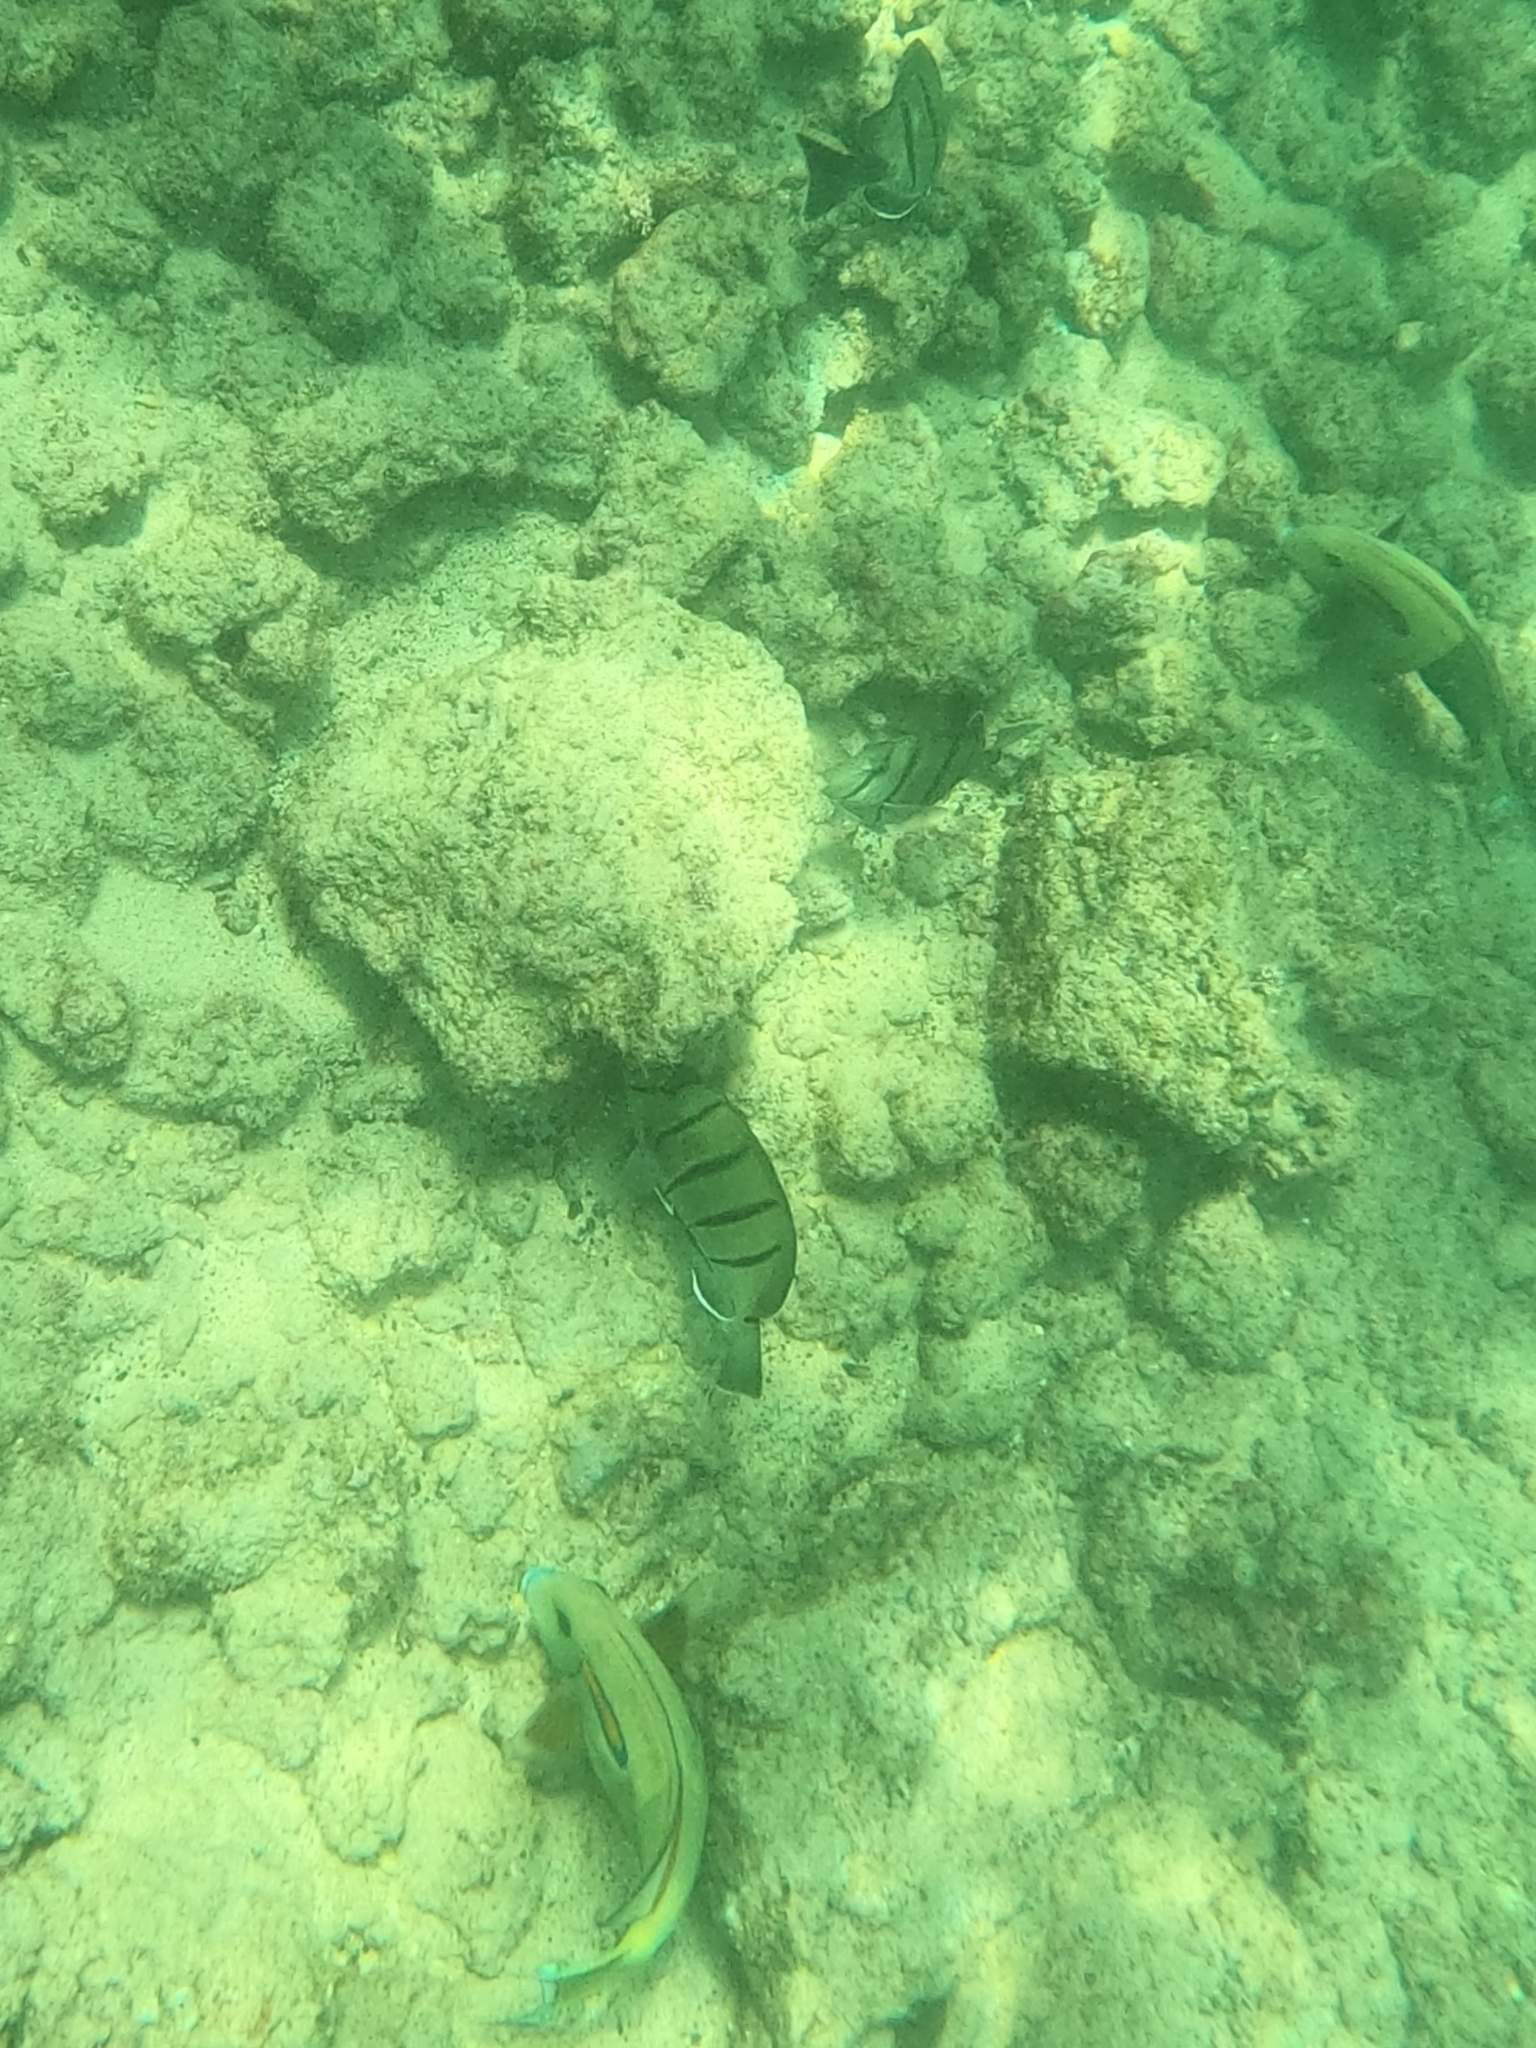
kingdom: Animalia
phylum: Chordata
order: Perciformes
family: Acanthuridae
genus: Acanthurus
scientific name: Acanthurus olivaceus
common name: Gendarme fish
